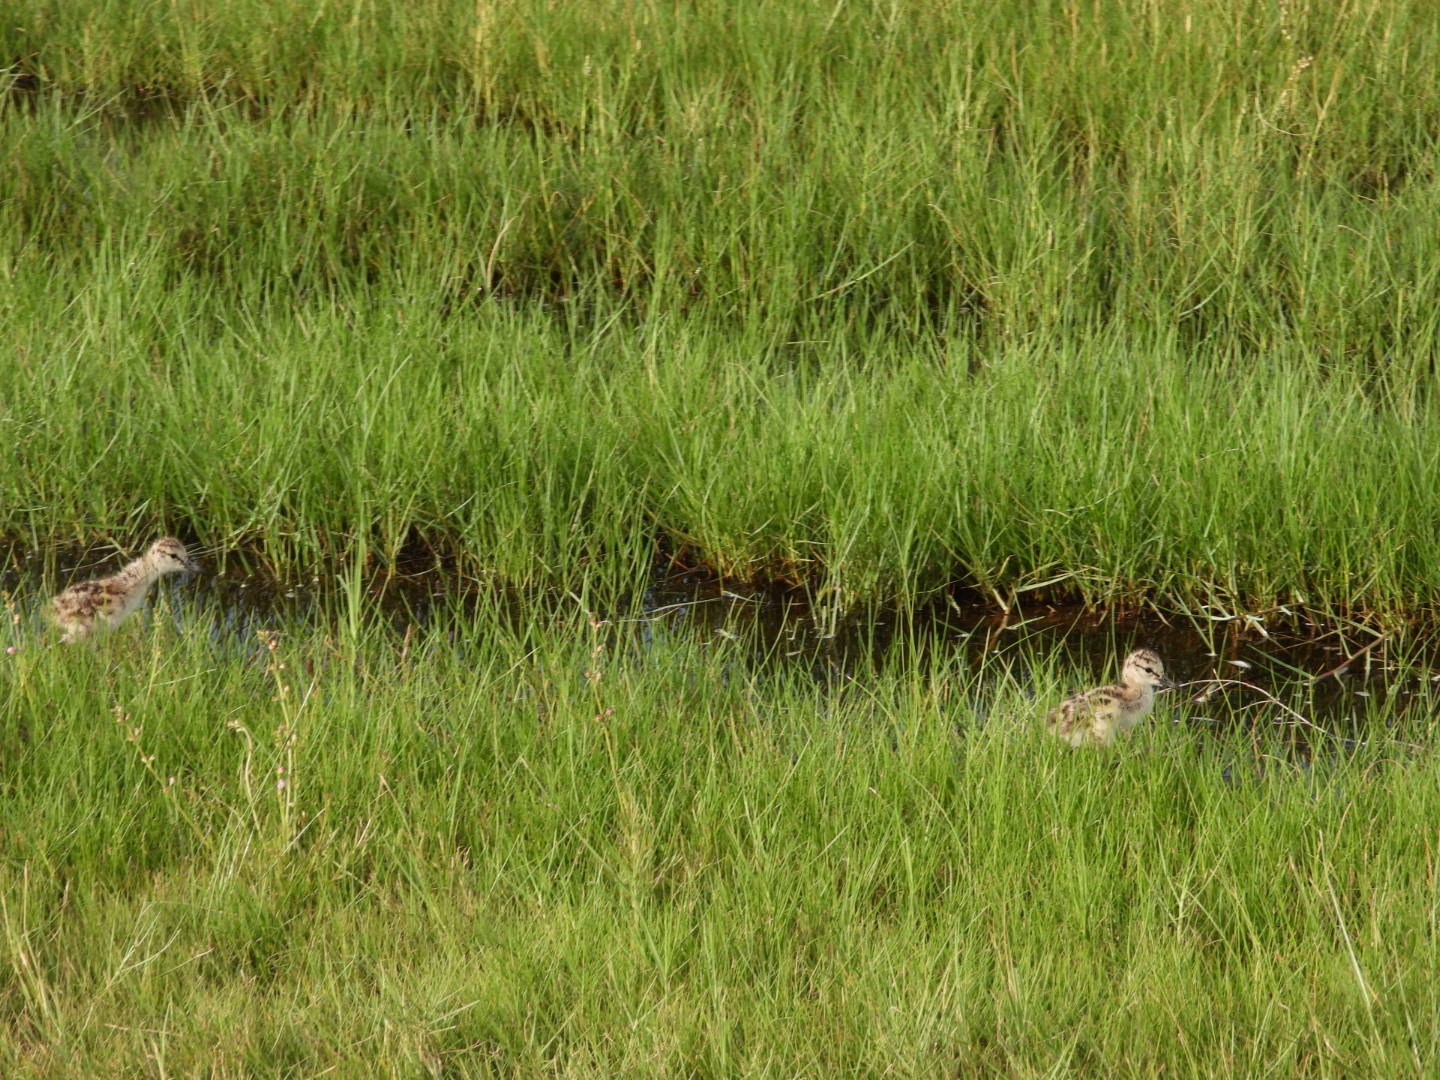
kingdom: Animalia
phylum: Chordata
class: Aves
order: Charadriiformes
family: Scolopacidae
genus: Tringa
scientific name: Tringa semipalmata
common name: Willet
